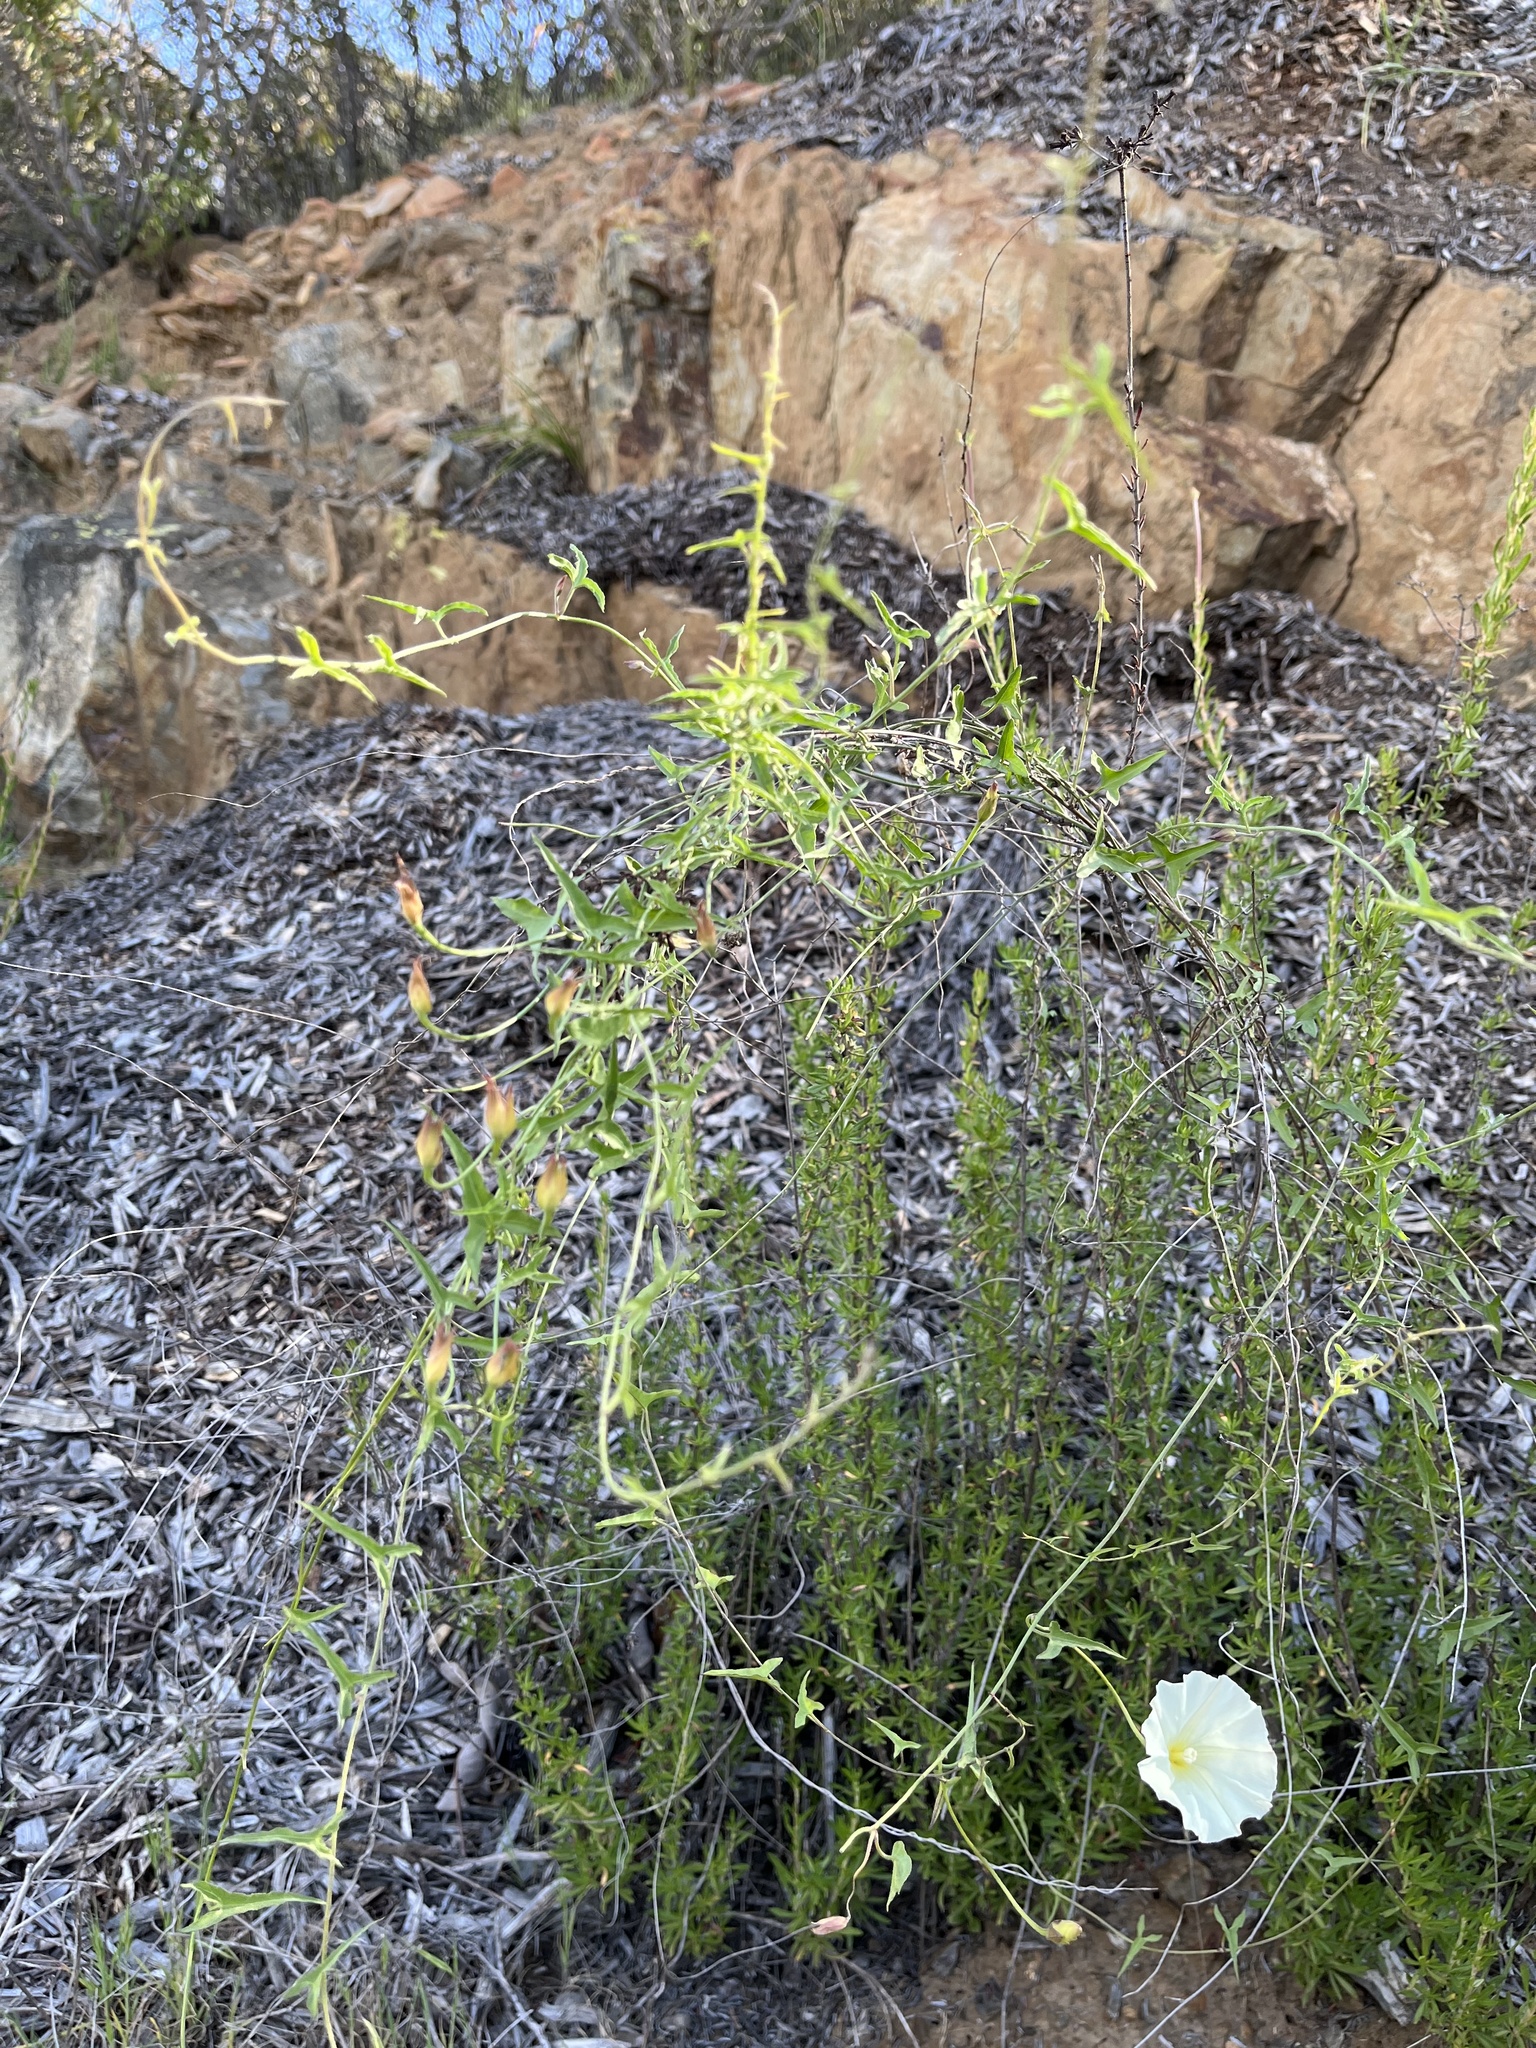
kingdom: Plantae
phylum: Tracheophyta
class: Magnoliopsida
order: Solanales
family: Convolvulaceae
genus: Calystegia
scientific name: Calystegia macrostegia
